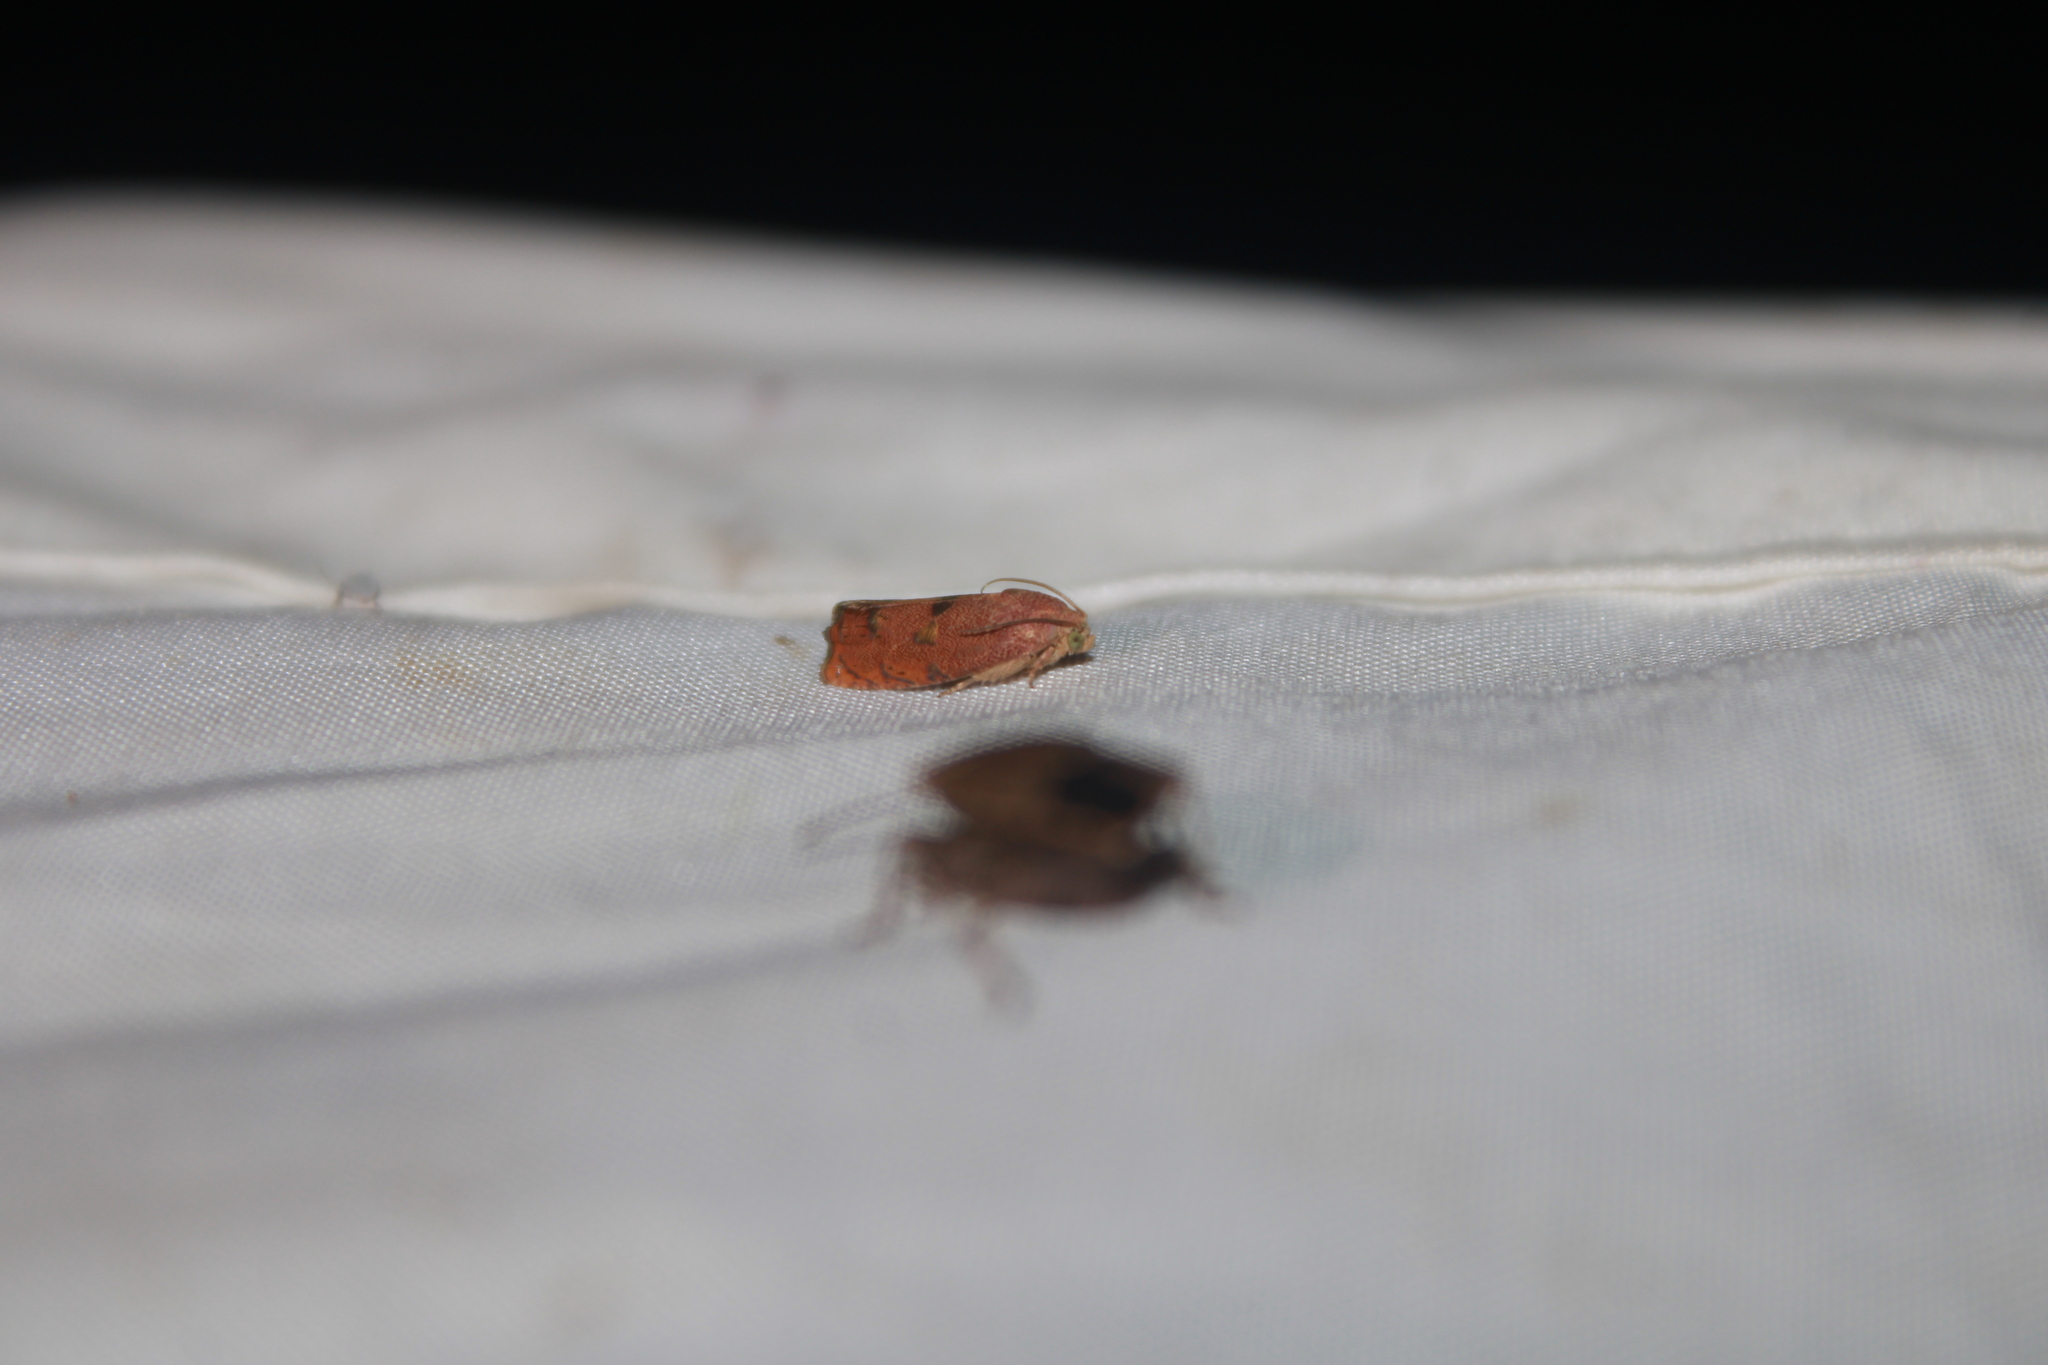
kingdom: Animalia
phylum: Arthropoda
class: Insecta
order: Lepidoptera
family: Tortricidae
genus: Cydia
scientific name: Cydia latiferreana
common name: Filbertworm moth
